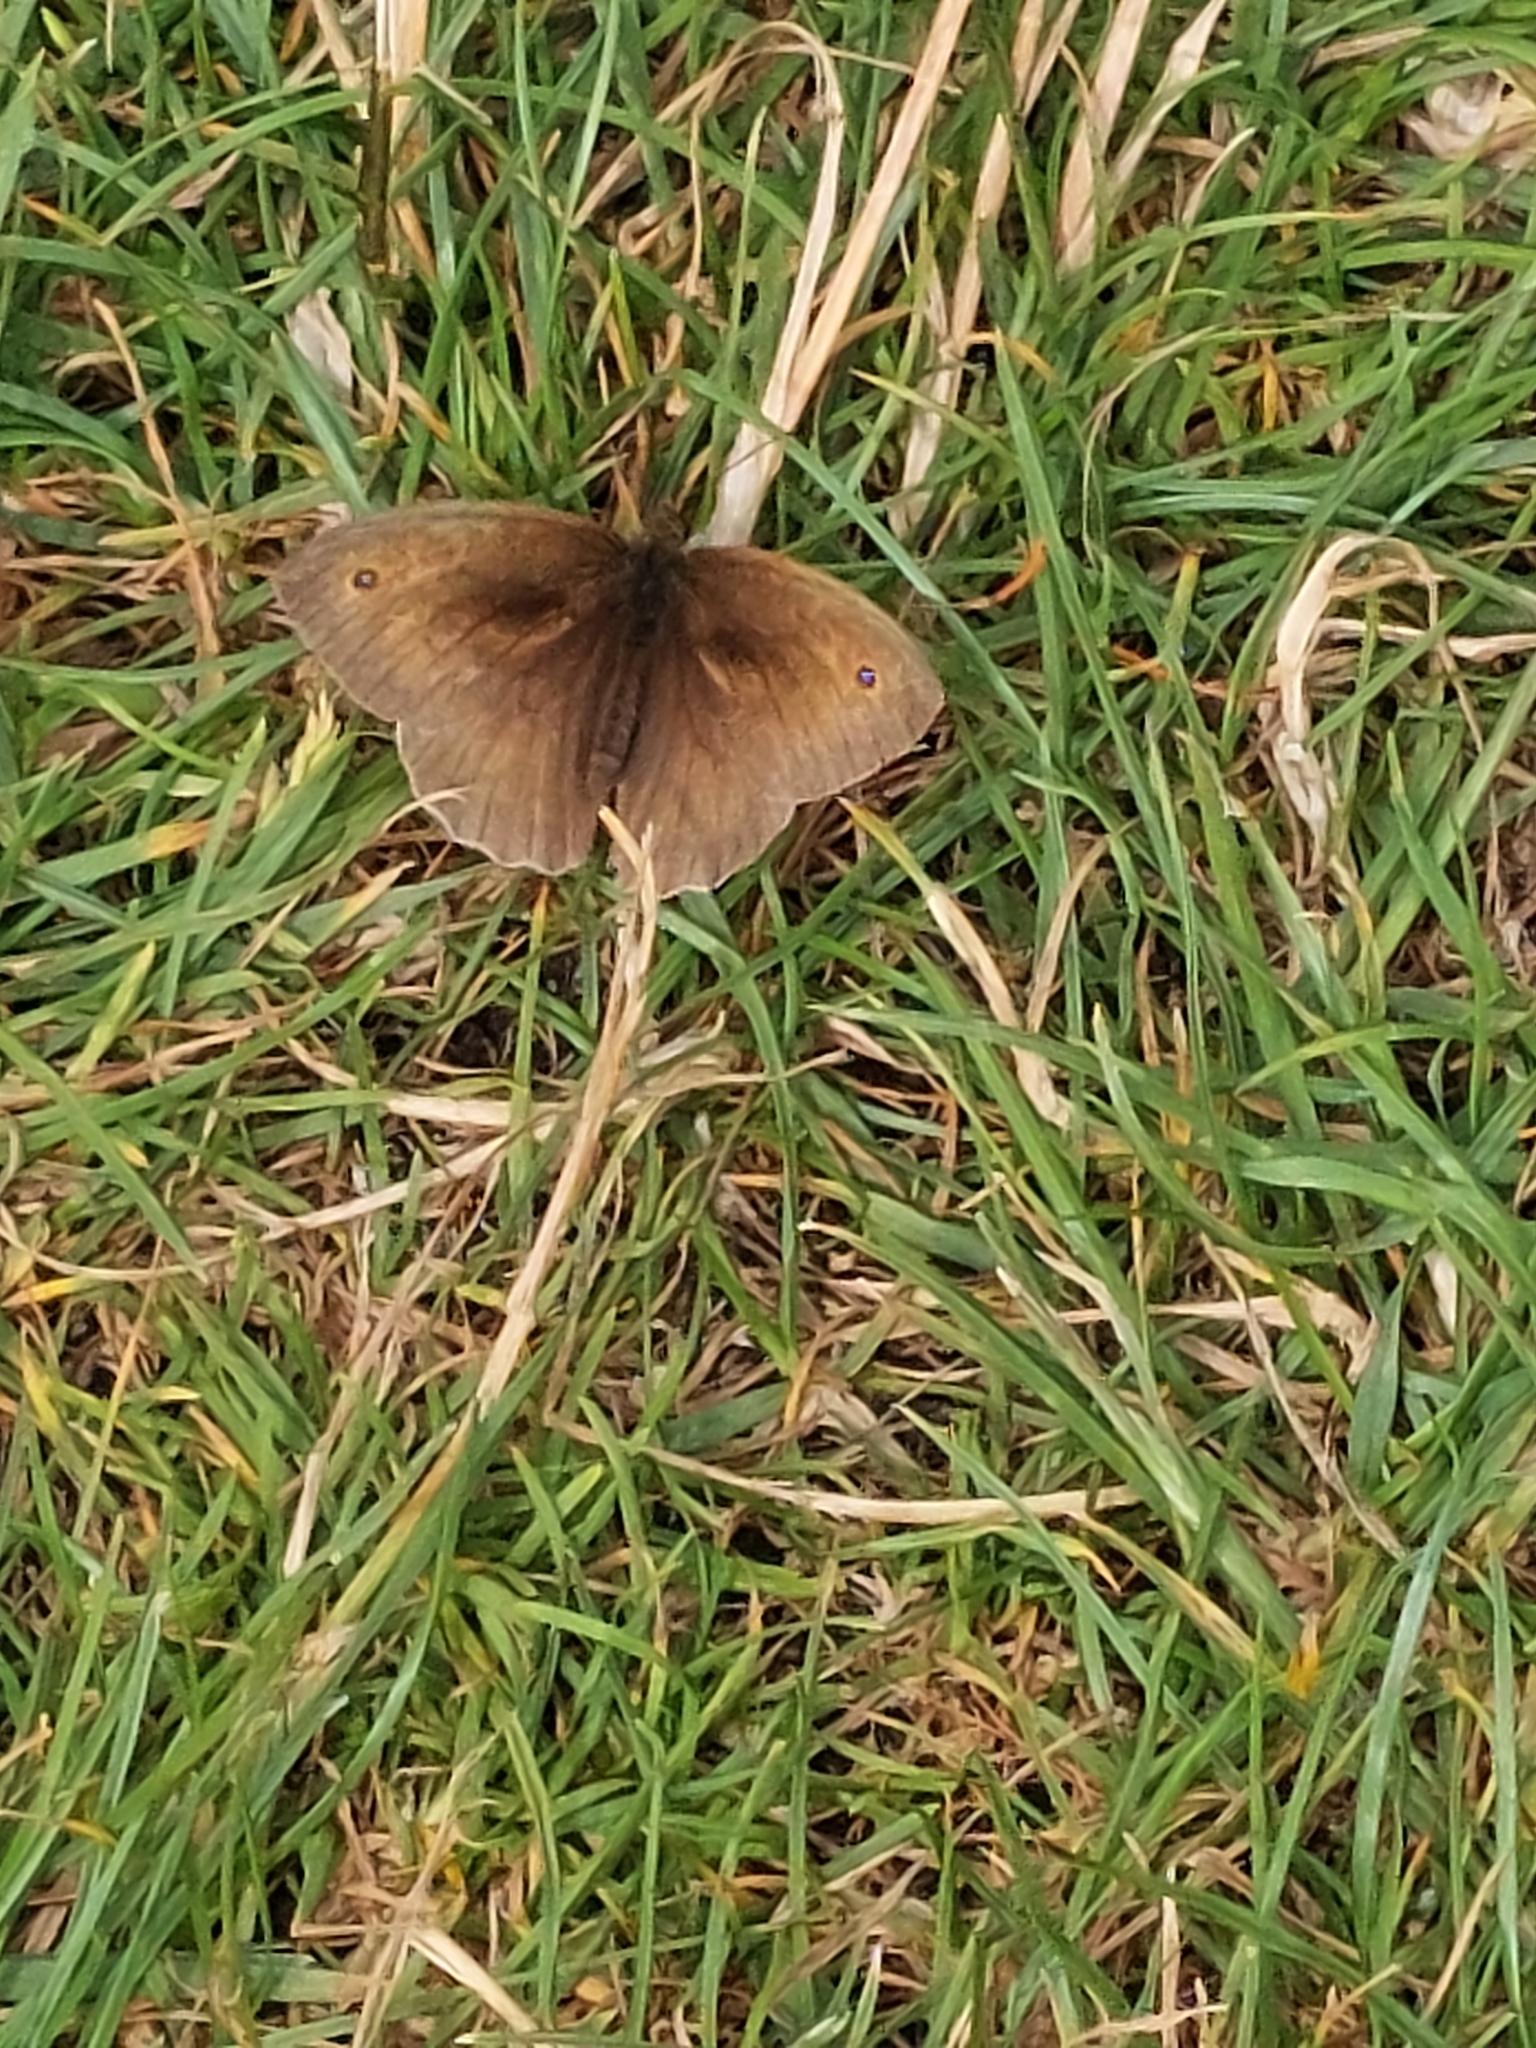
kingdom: Animalia
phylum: Arthropoda
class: Insecta
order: Lepidoptera
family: Nymphalidae
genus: Maniola
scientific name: Maniola jurtina
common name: Meadow brown
